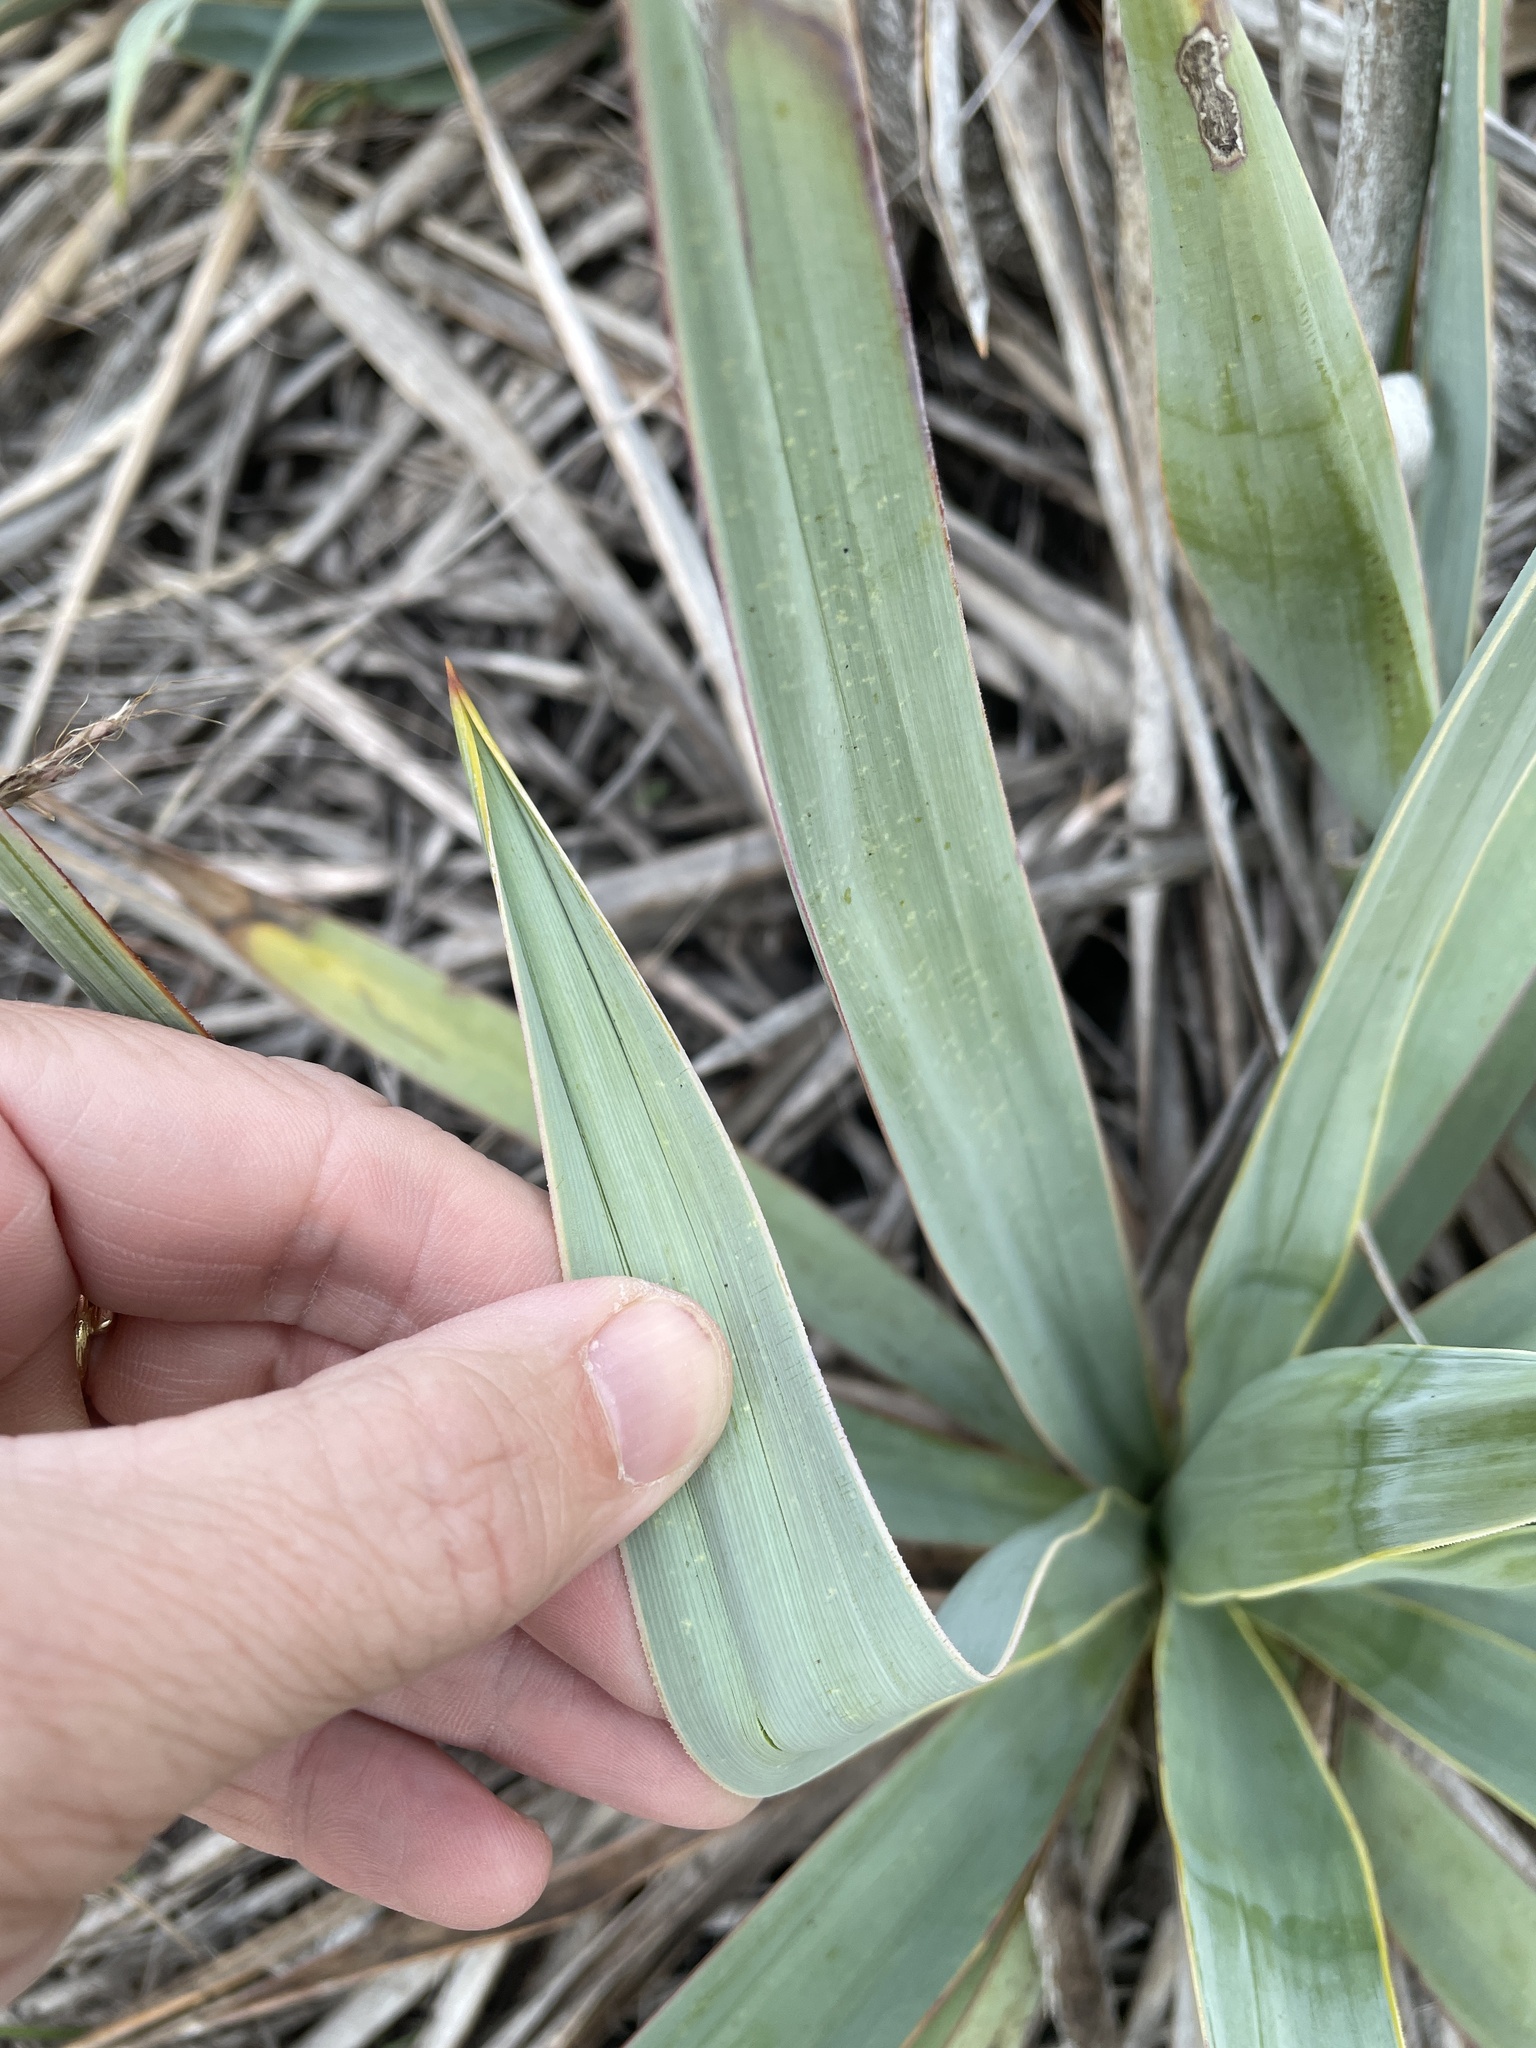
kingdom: Plantae
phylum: Tracheophyta
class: Liliopsida
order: Asparagales
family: Asparagaceae
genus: Yucca
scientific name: Yucca pallida
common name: Pale leaf yucca
